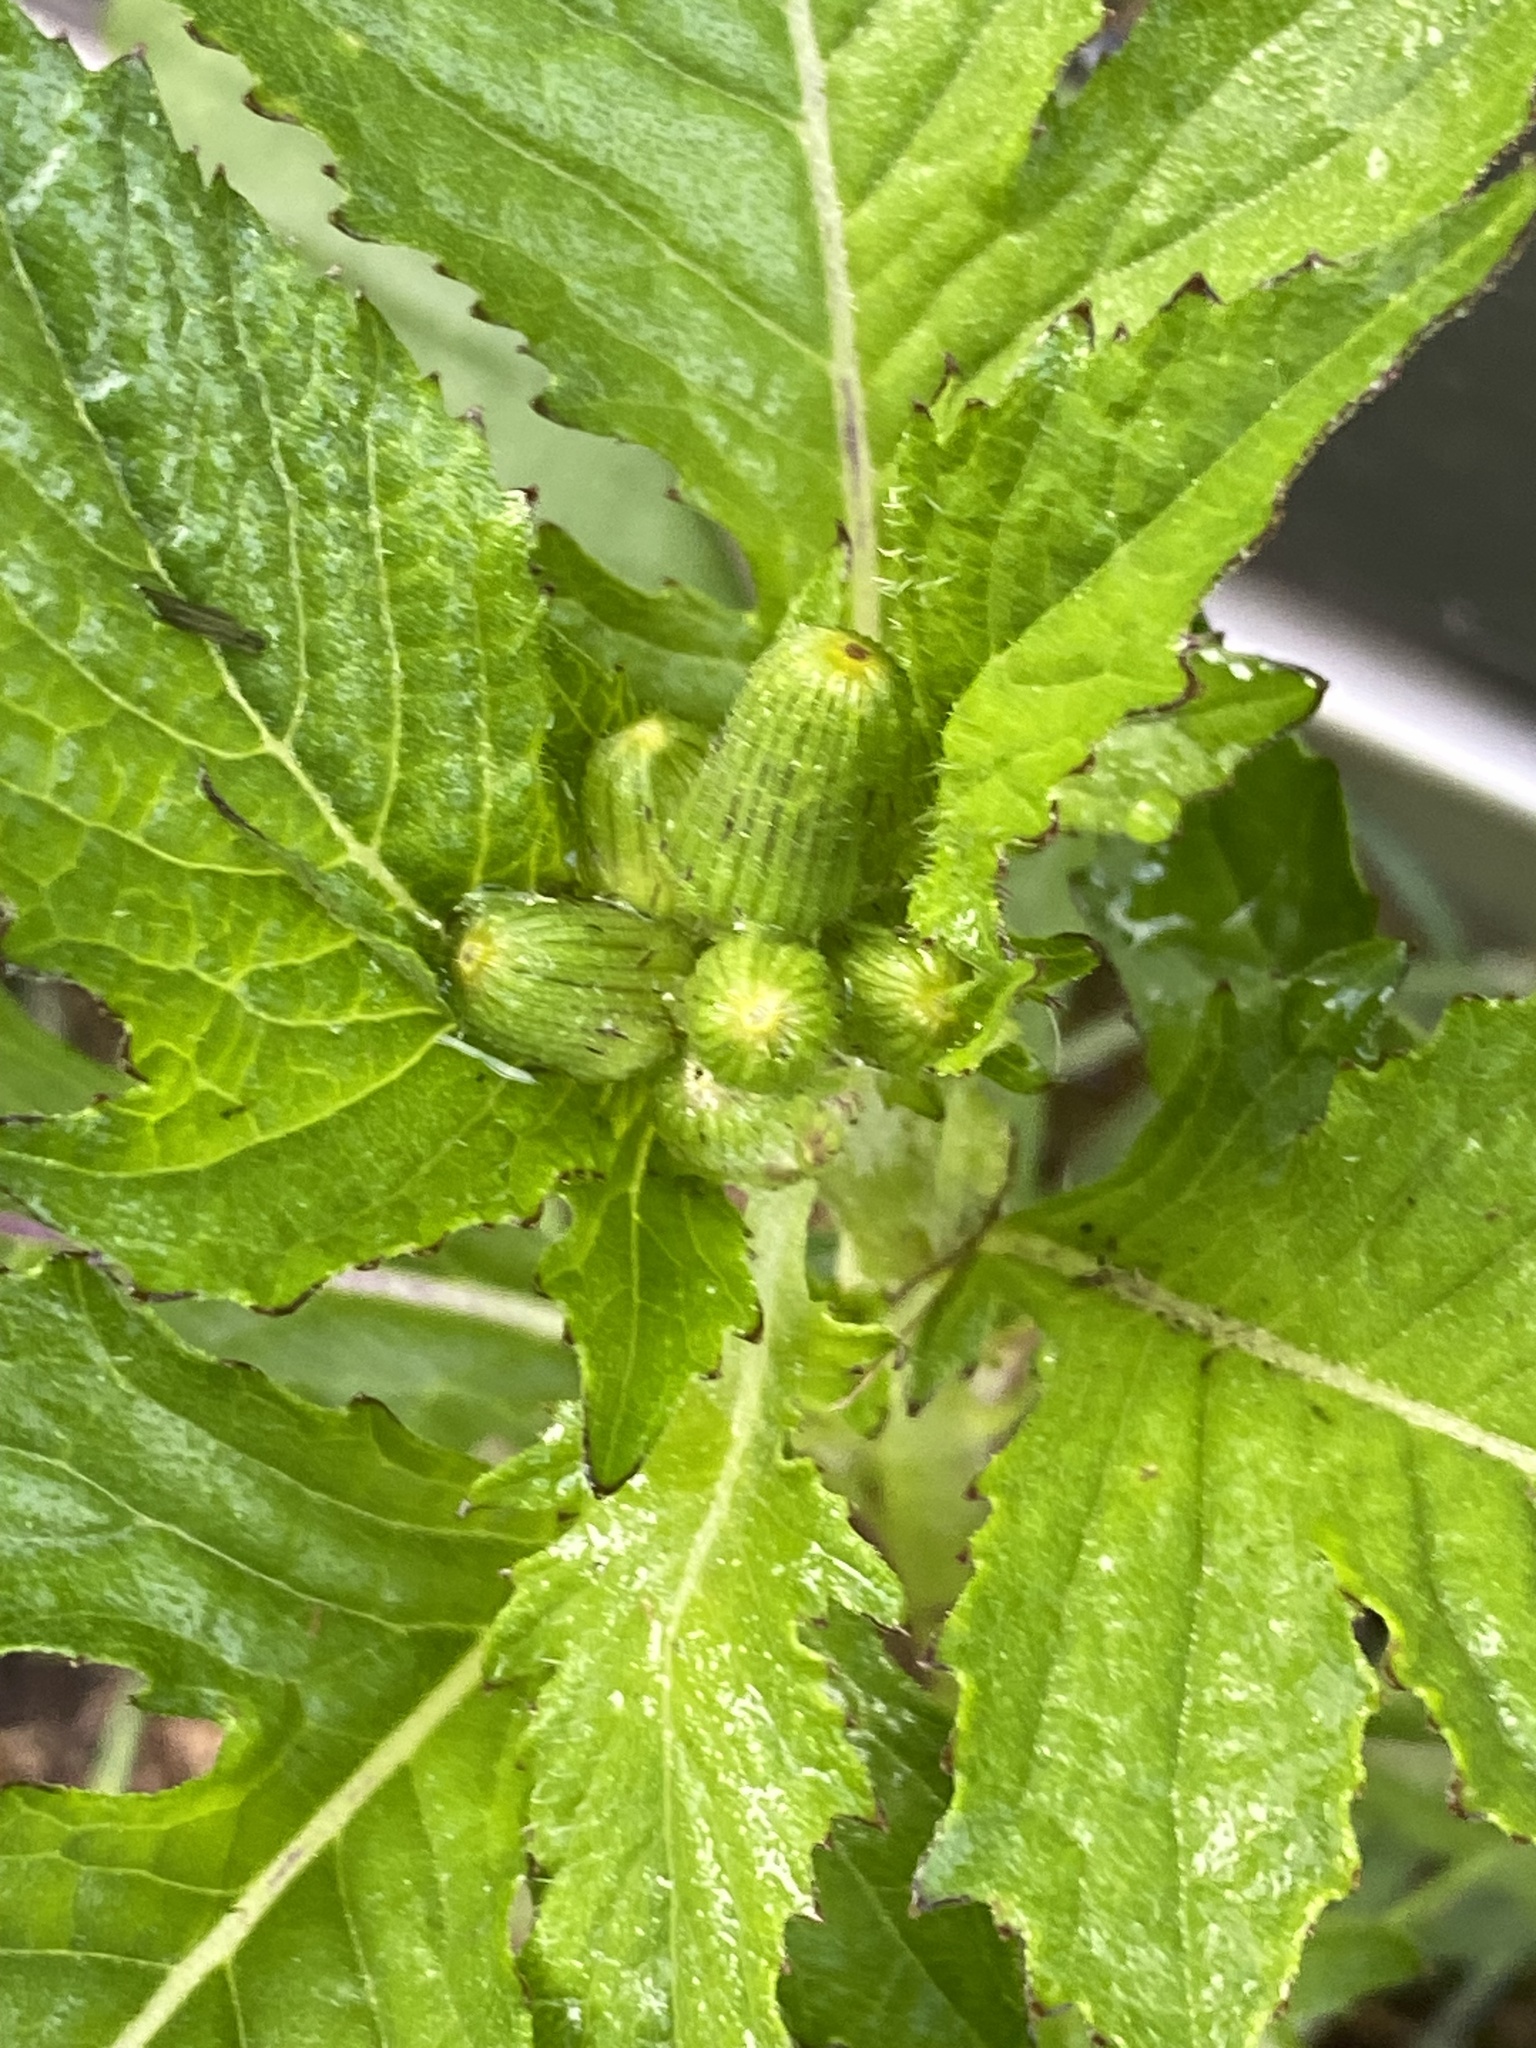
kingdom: Plantae
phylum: Tracheophyta
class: Magnoliopsida
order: Asterales
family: Asteraceae
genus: Crassocephalum
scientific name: Crassocephalum crepidioides
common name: Redflower ragleaf
